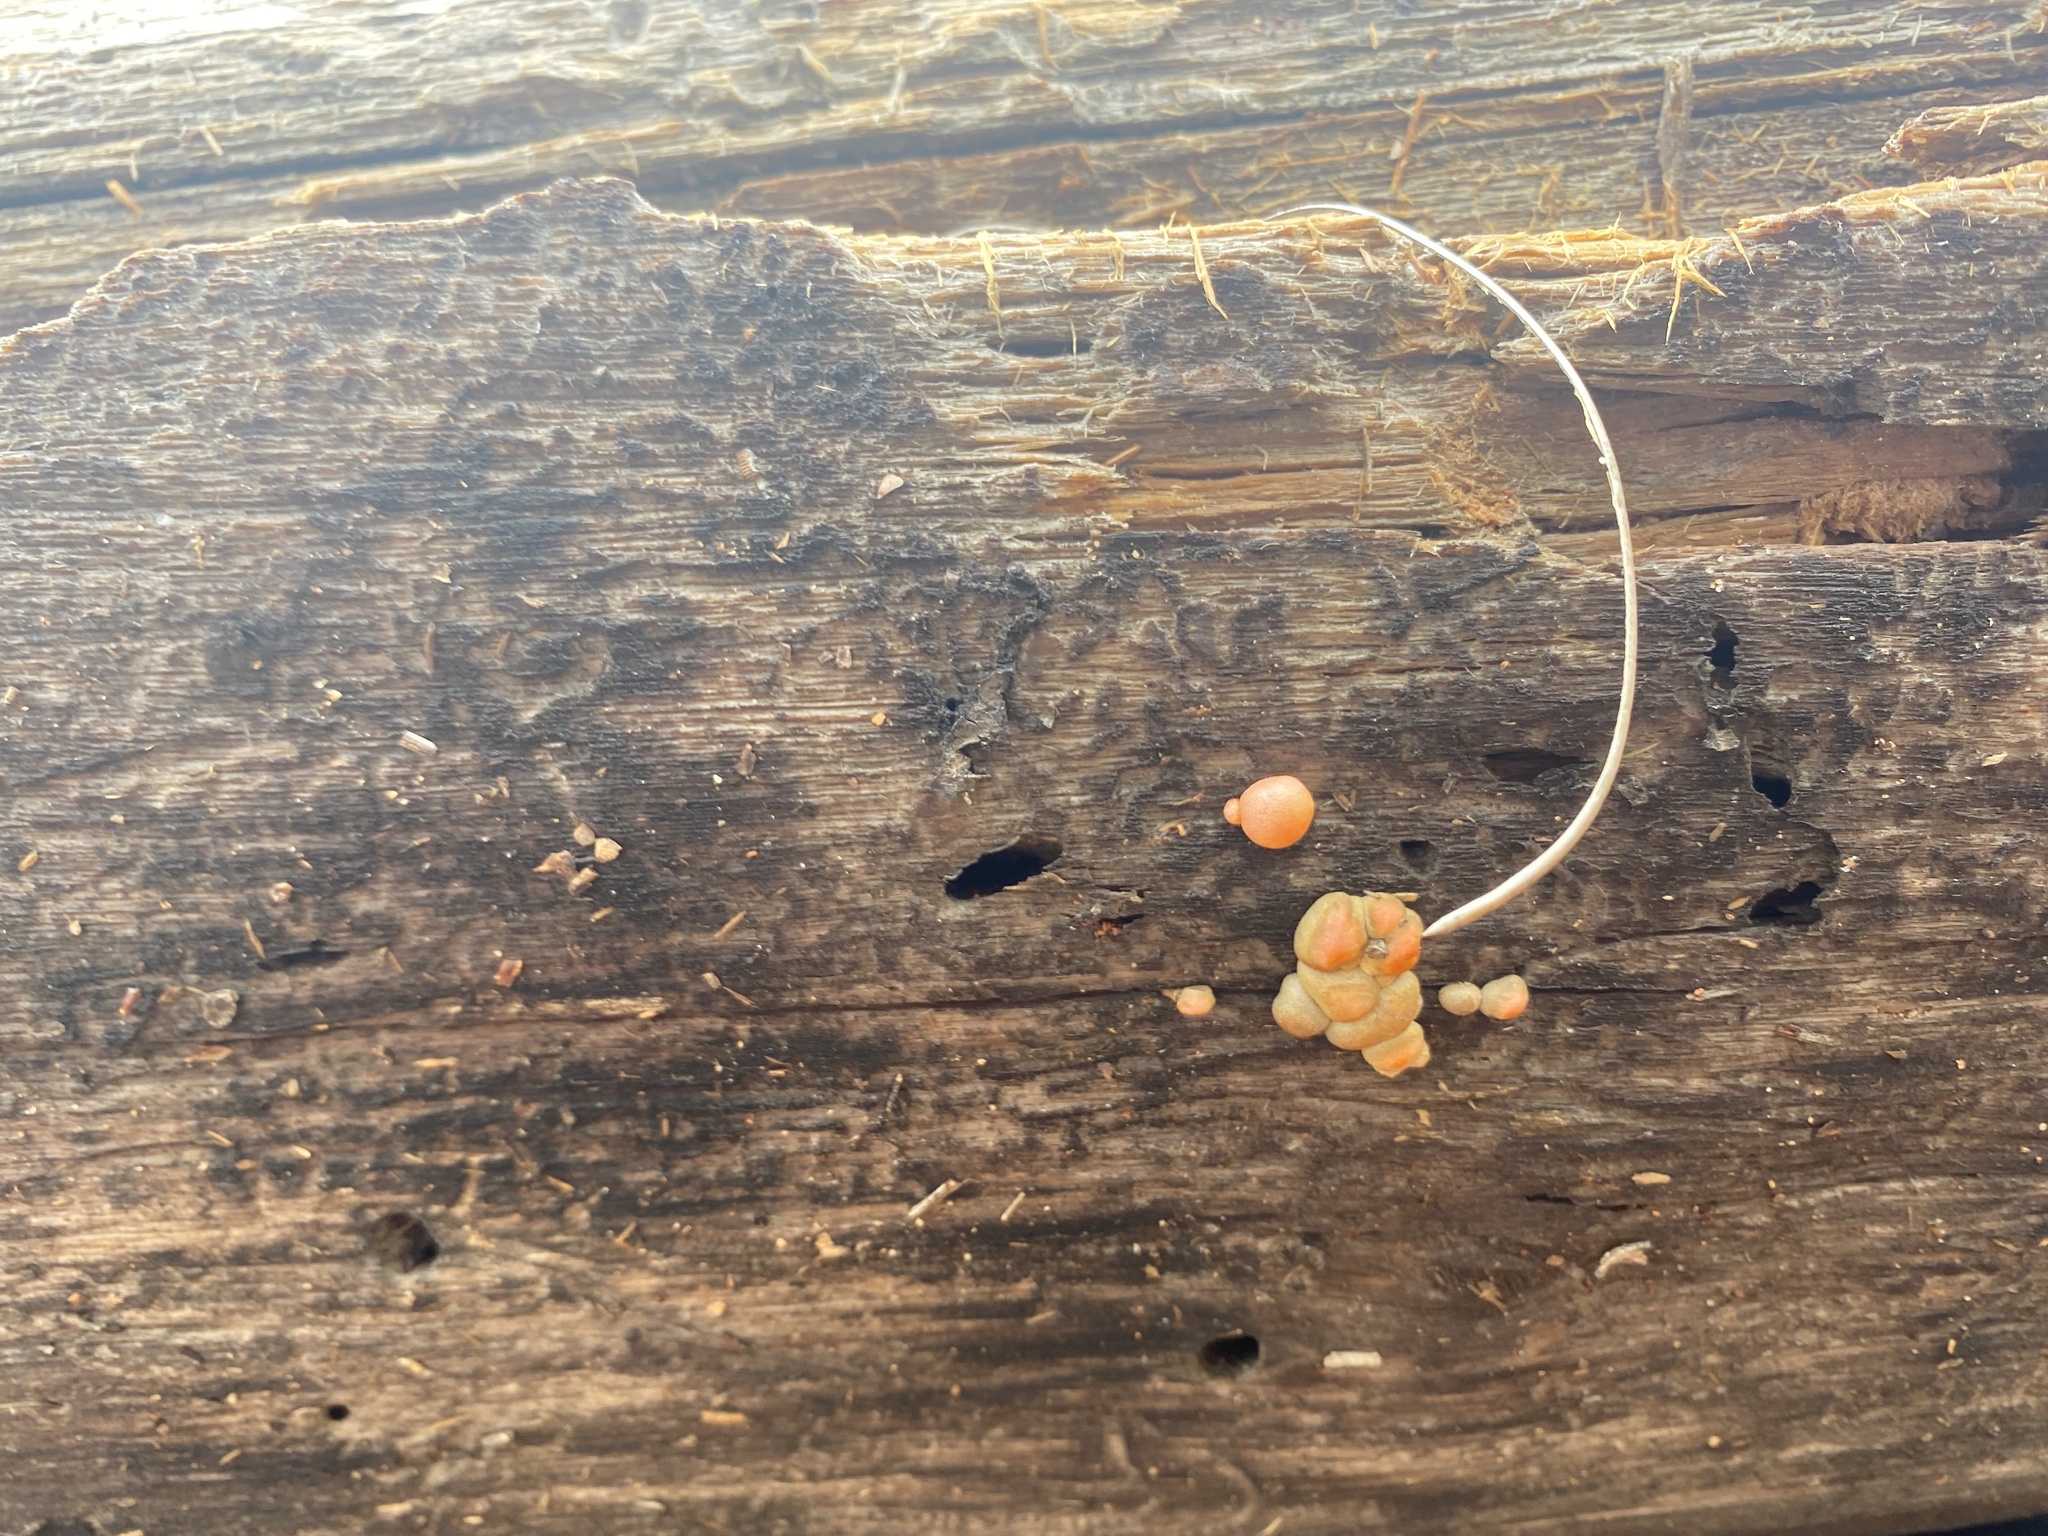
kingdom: Protozoa
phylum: Mycetozoa
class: Myxomycetes
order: Cribrariales
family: Tubiferaceae
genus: Lycogala
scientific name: Lycogala epidendrum
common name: Wolf's milk
